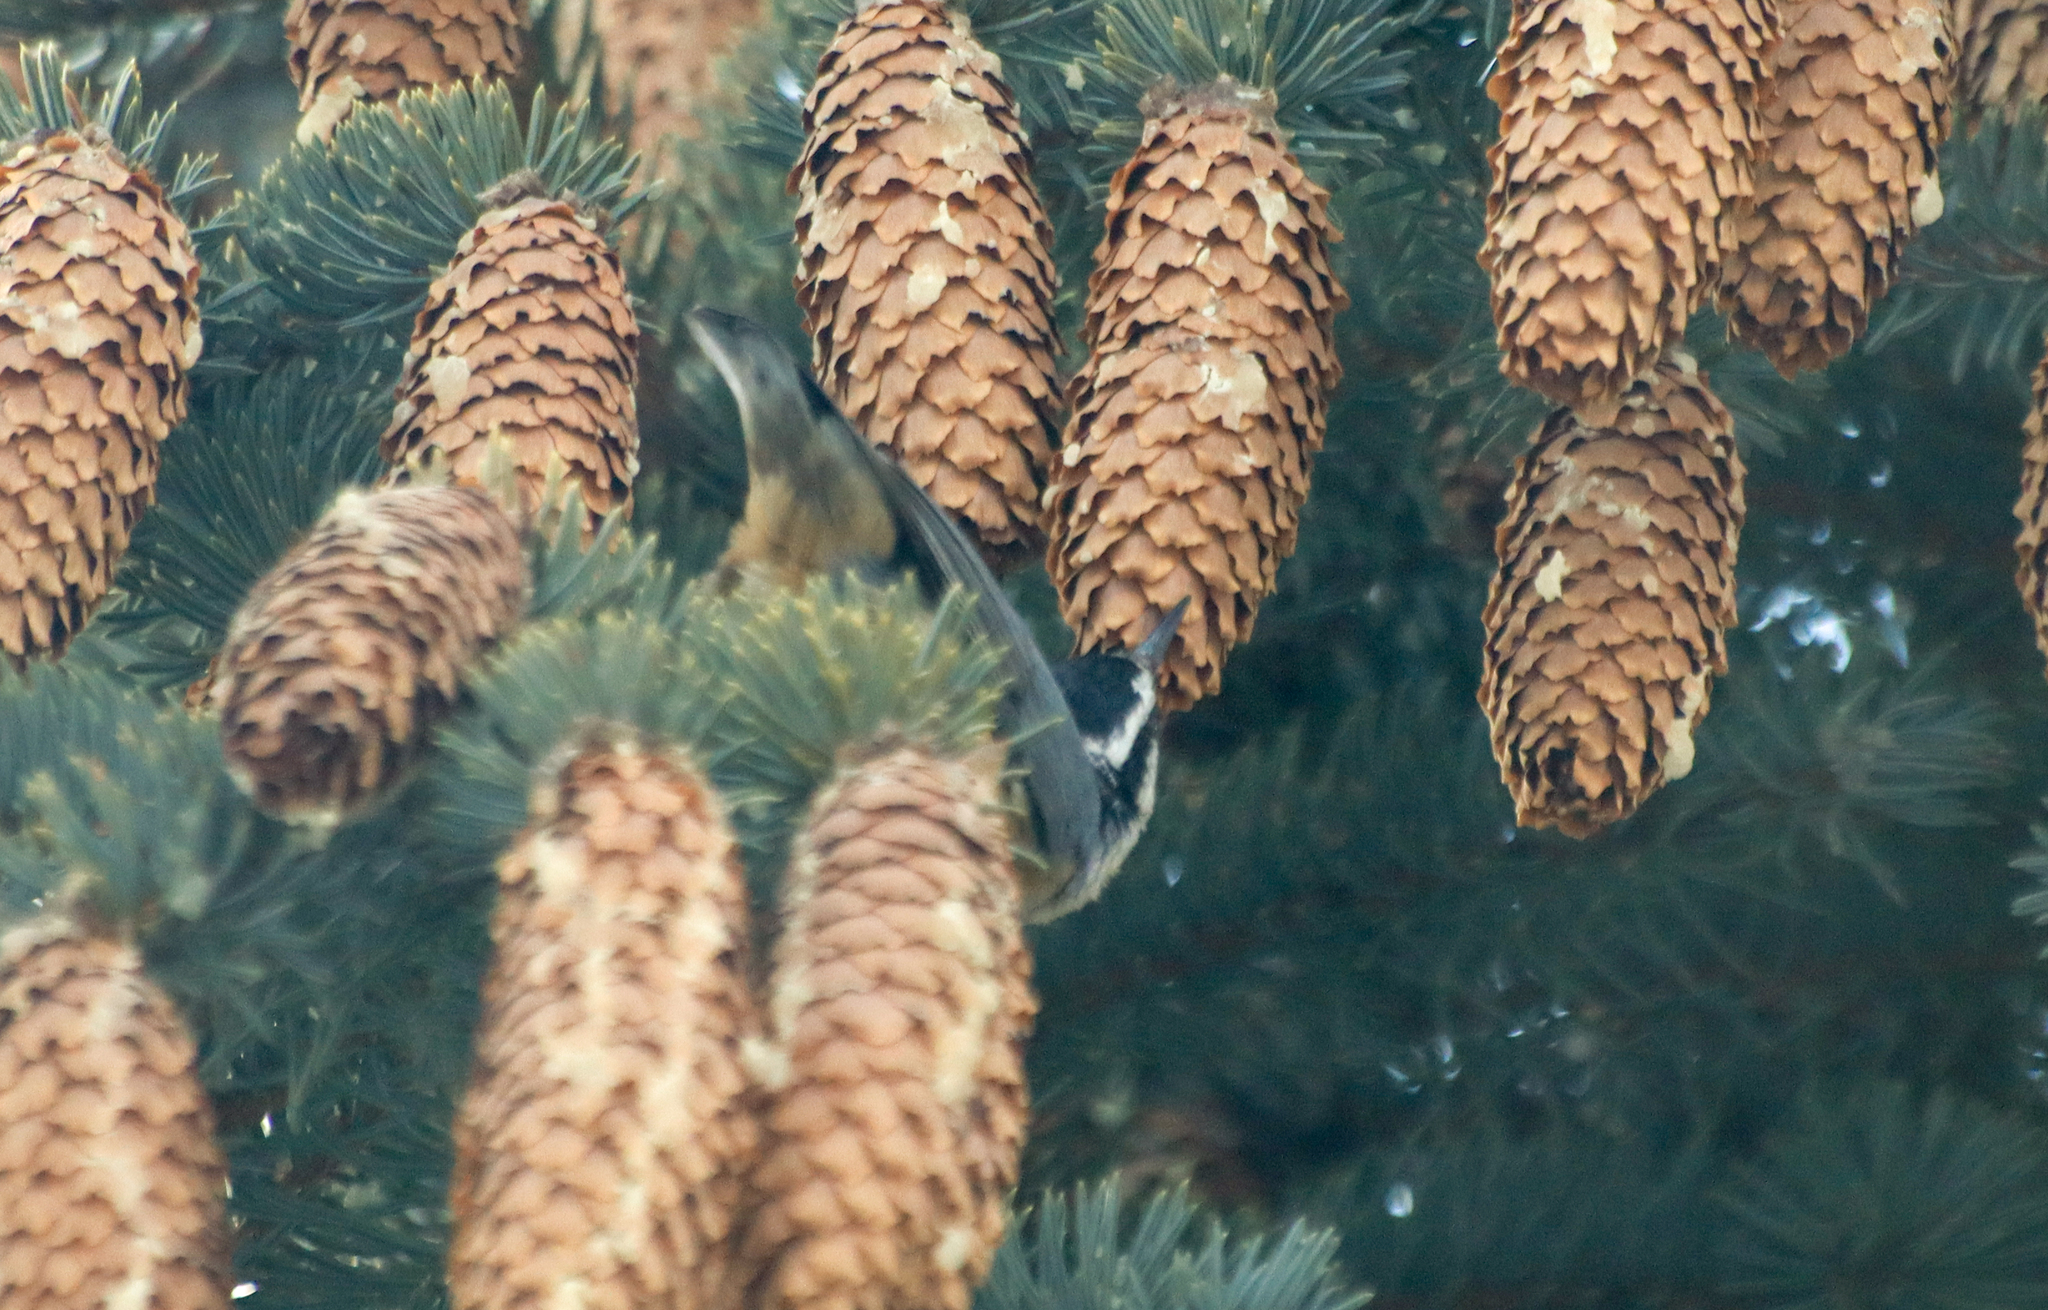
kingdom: Animalia
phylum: Chordata
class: Aves
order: Passeriformes
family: Sittidae
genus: Sitta
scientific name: Sitta canadensis
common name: Red-breasted nuthatch
